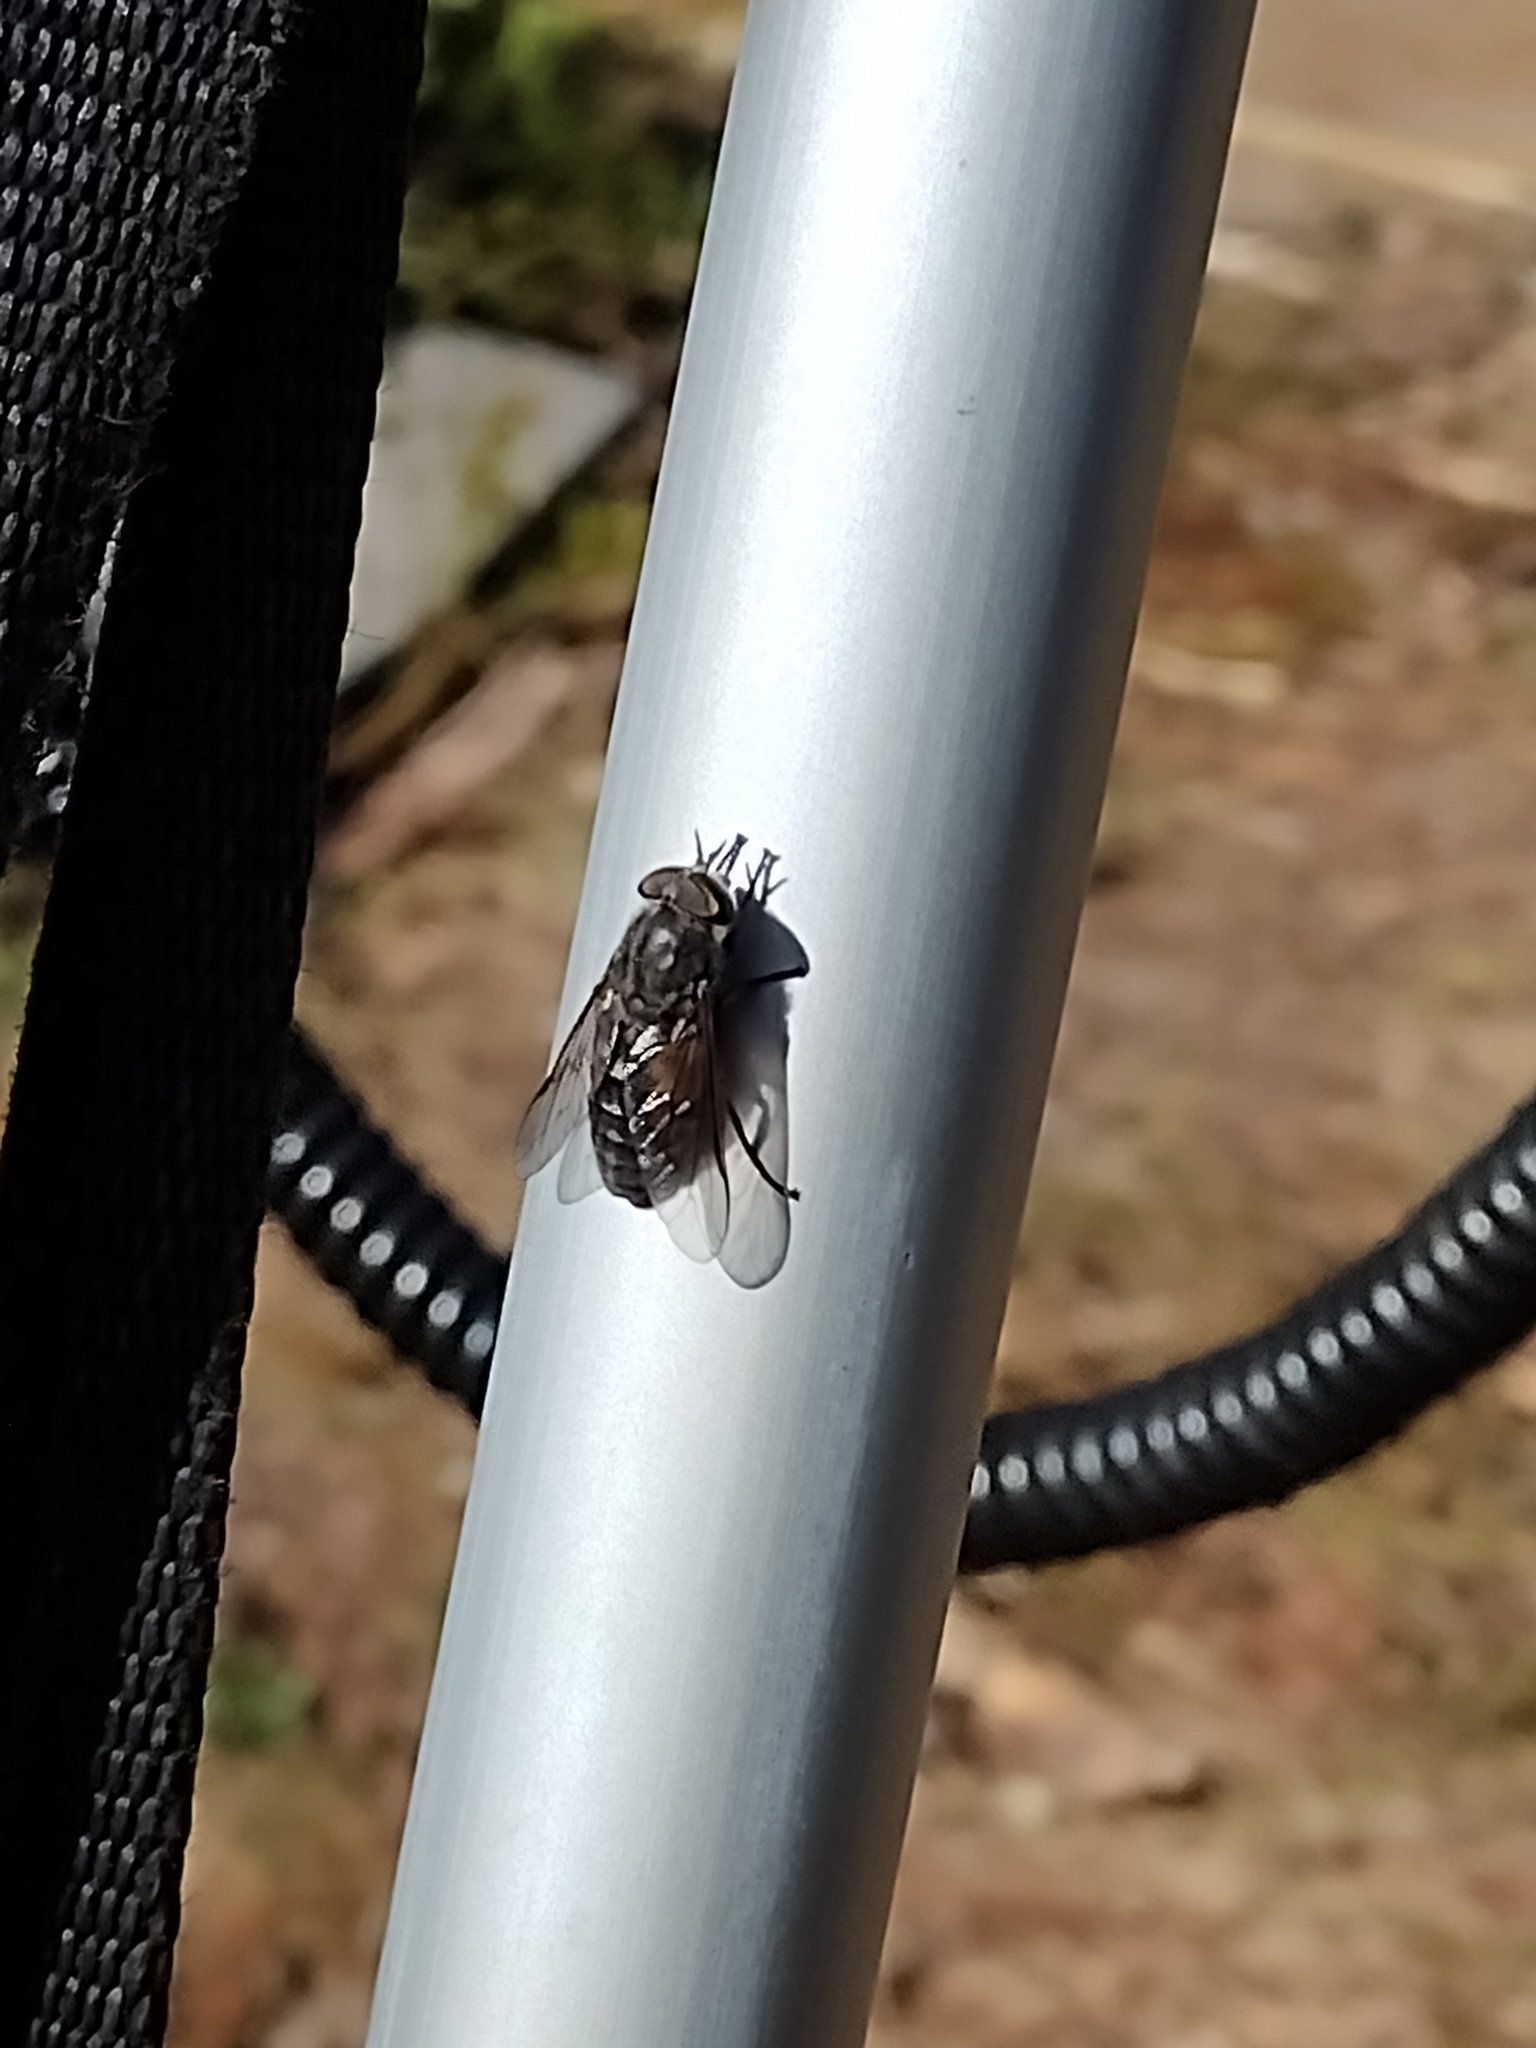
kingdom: Animalia
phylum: Arthropoda
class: Insecta
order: Diptera
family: Tabanidae
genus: Hybomitra
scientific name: Hybomitra bimaculata
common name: Hairy-legged horsefly
